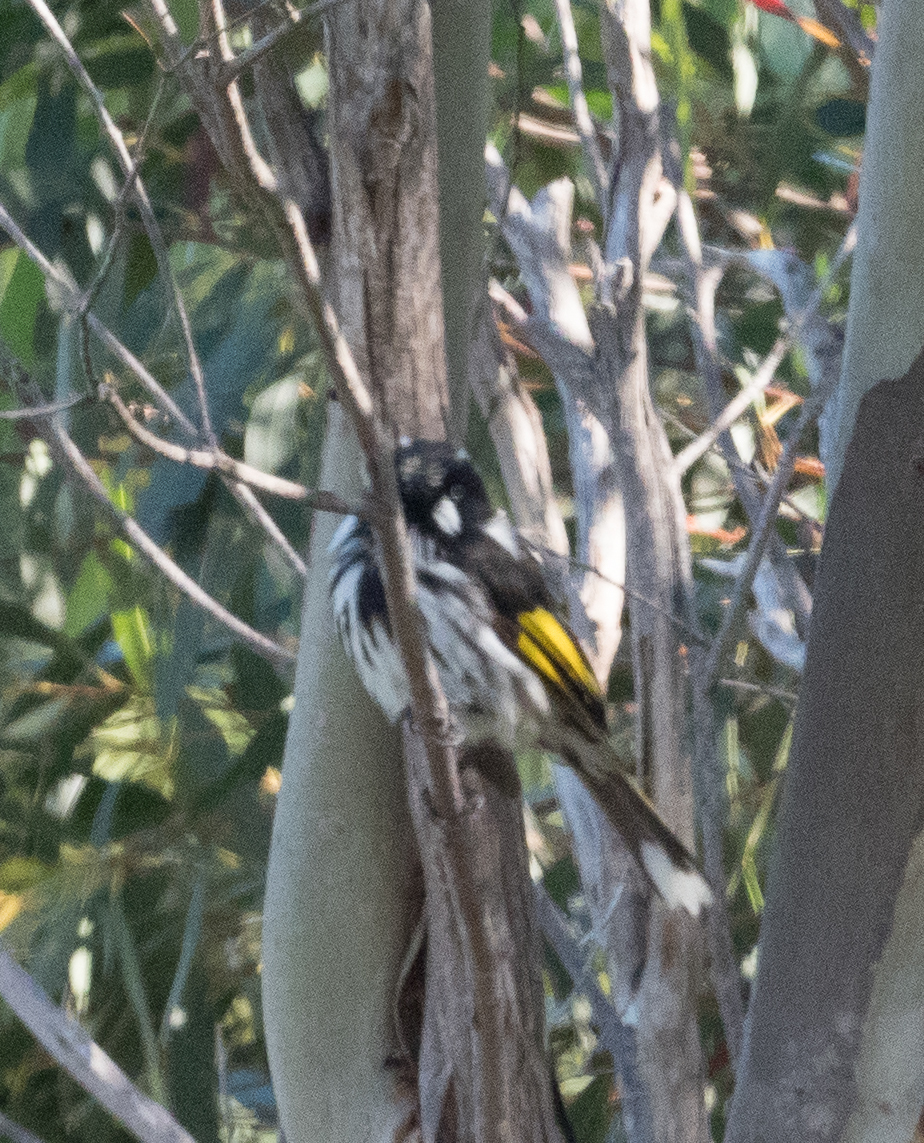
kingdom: Animalia
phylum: Chordata
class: Aves
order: Passeriformes
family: Meliphagidae
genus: Phylidonyris
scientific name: Phylidonyris novaehollandiae
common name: New holland honeyeater
